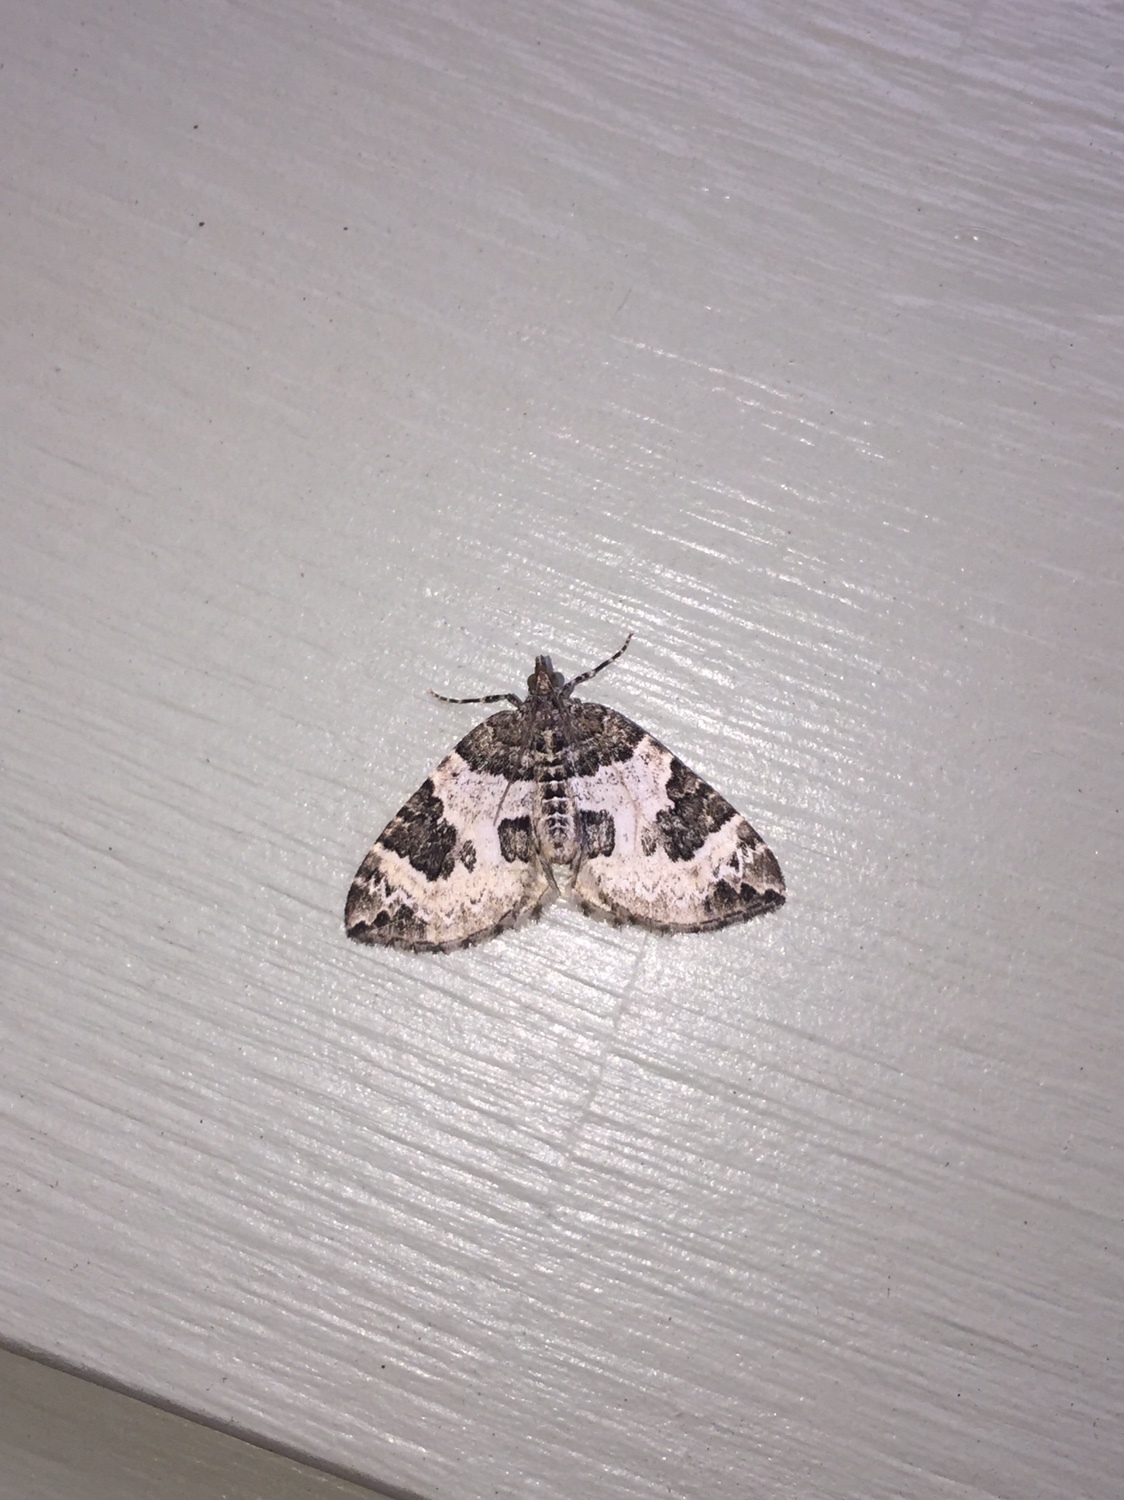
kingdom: Animalia
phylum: Arthropoda
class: Insecta
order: Lepidoptera
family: Geometridae
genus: Eulithis
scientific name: Eulithis explanata
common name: White eulithis
